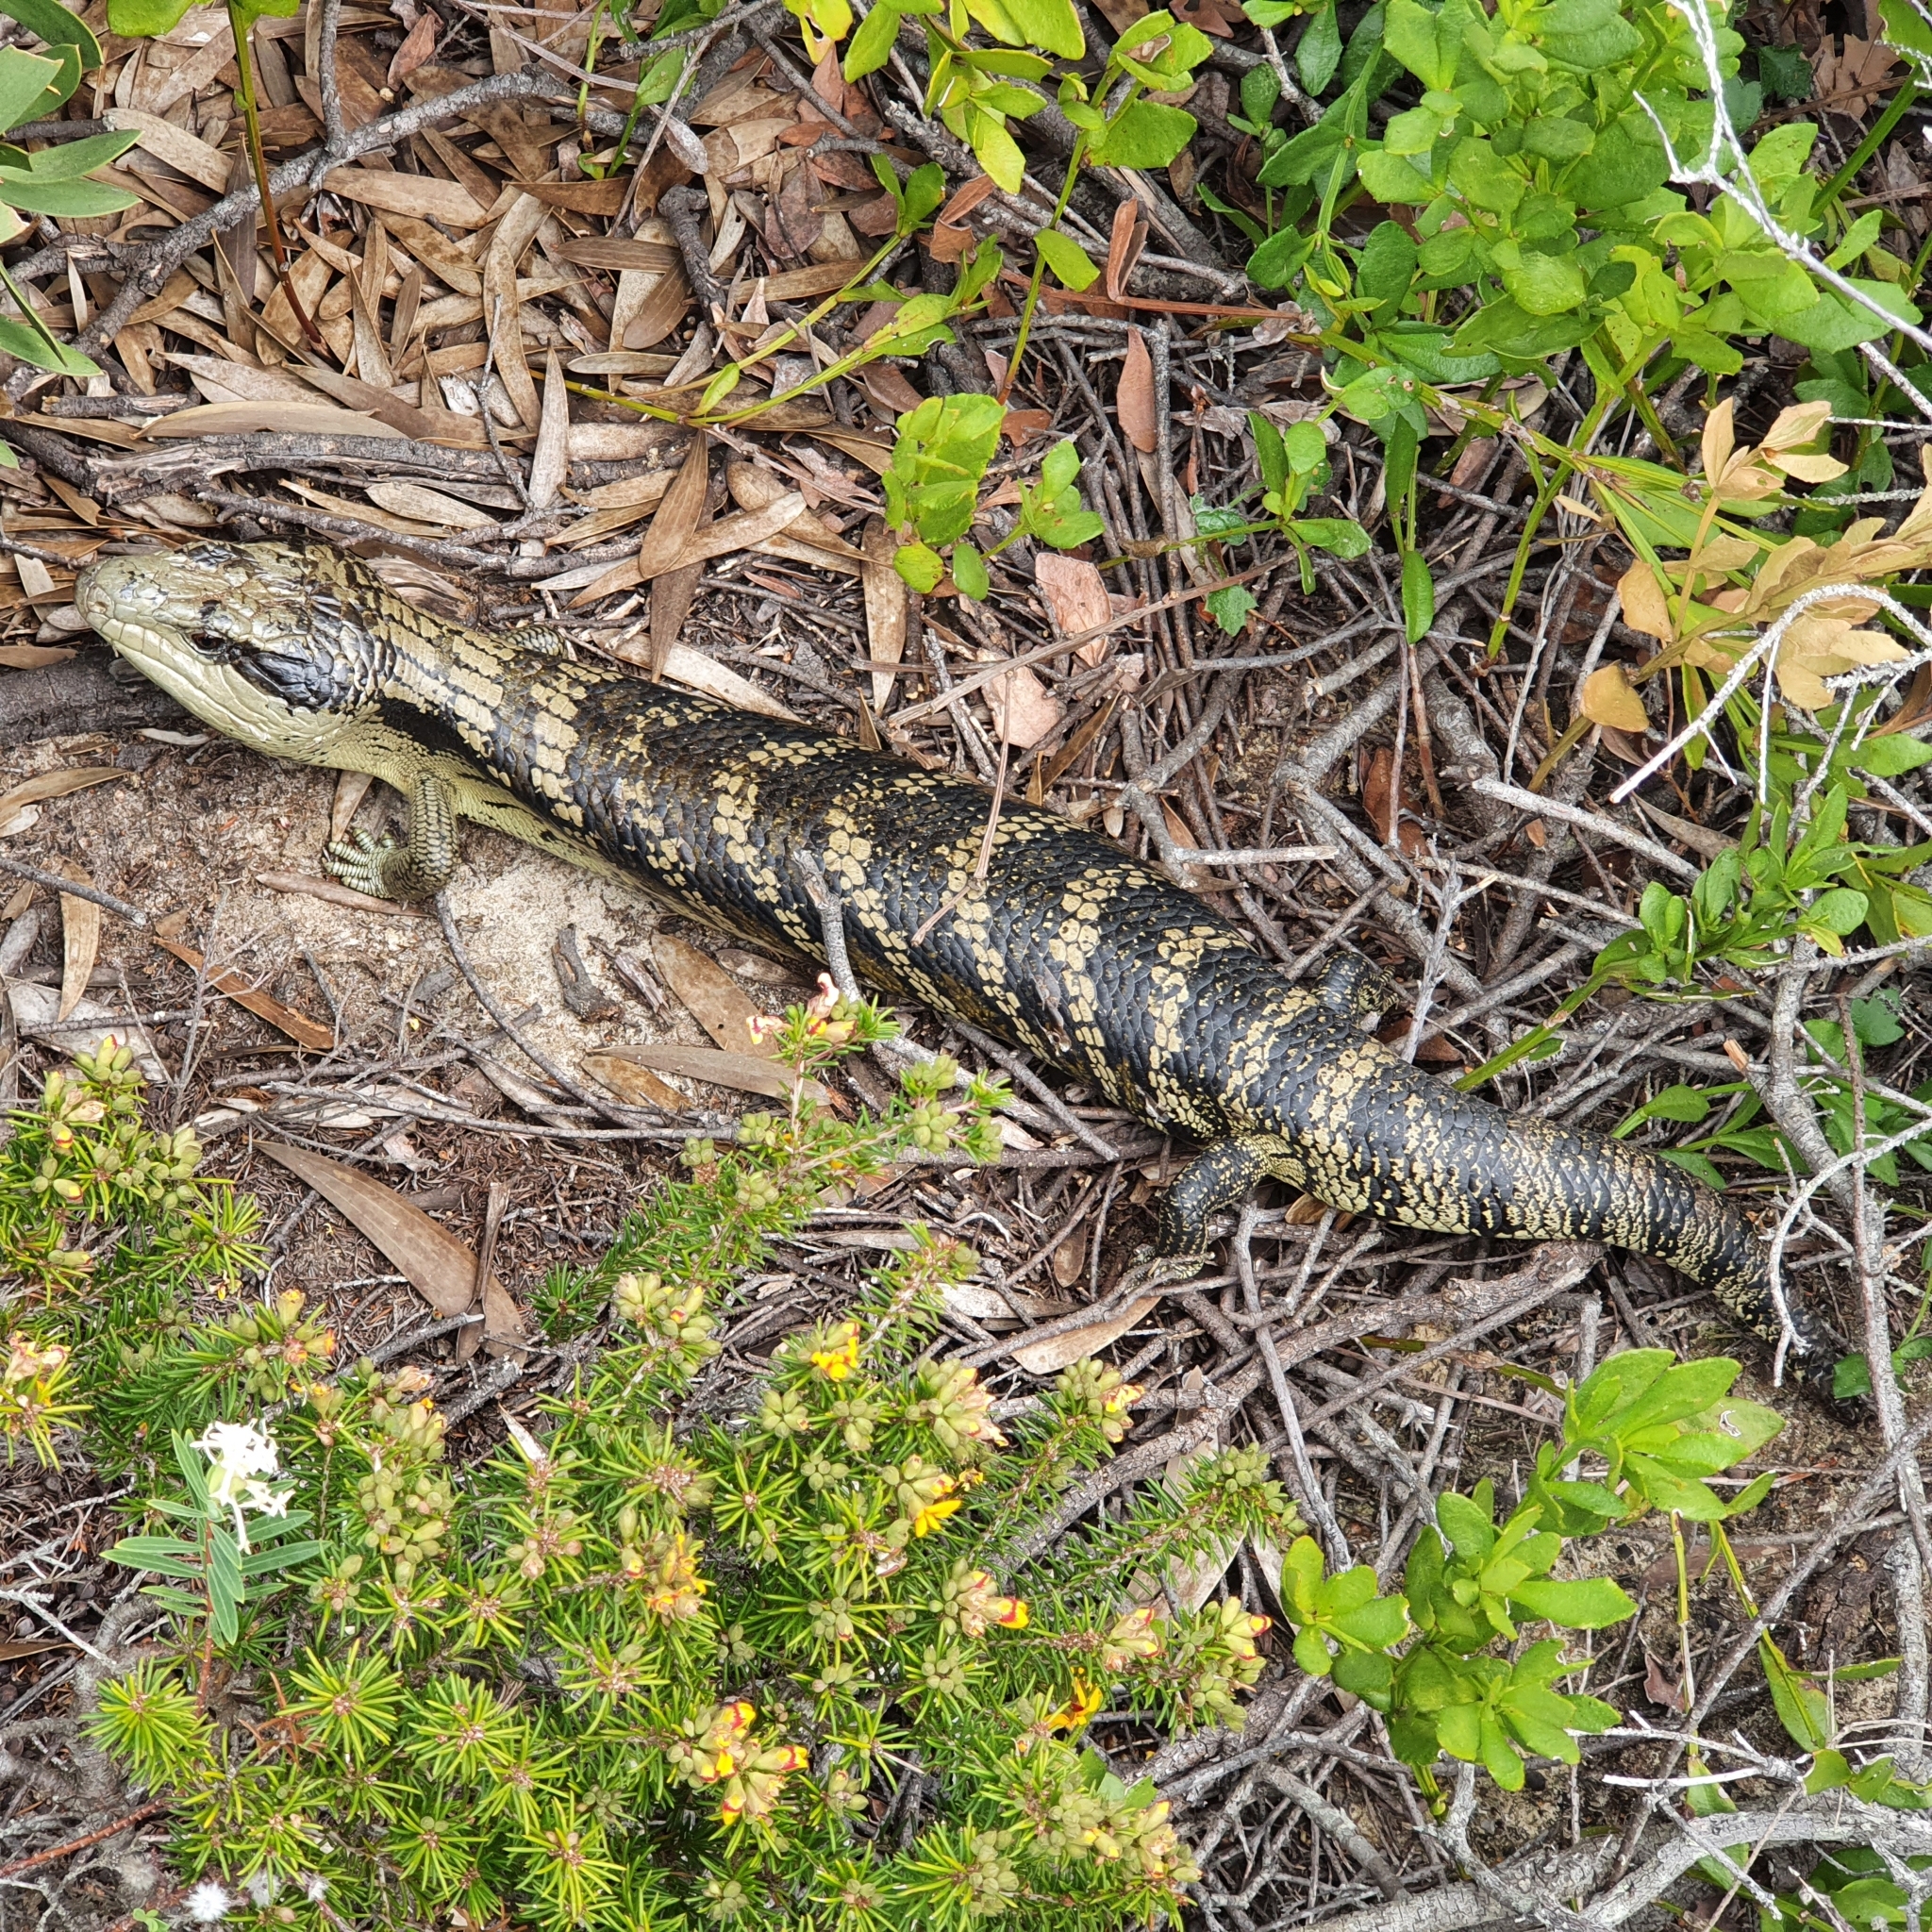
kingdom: Animalia
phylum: Chordata
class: Squamata
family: Scincidae
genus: Tiliqua
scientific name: Tiliqua scincoides
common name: Common bluetongue
